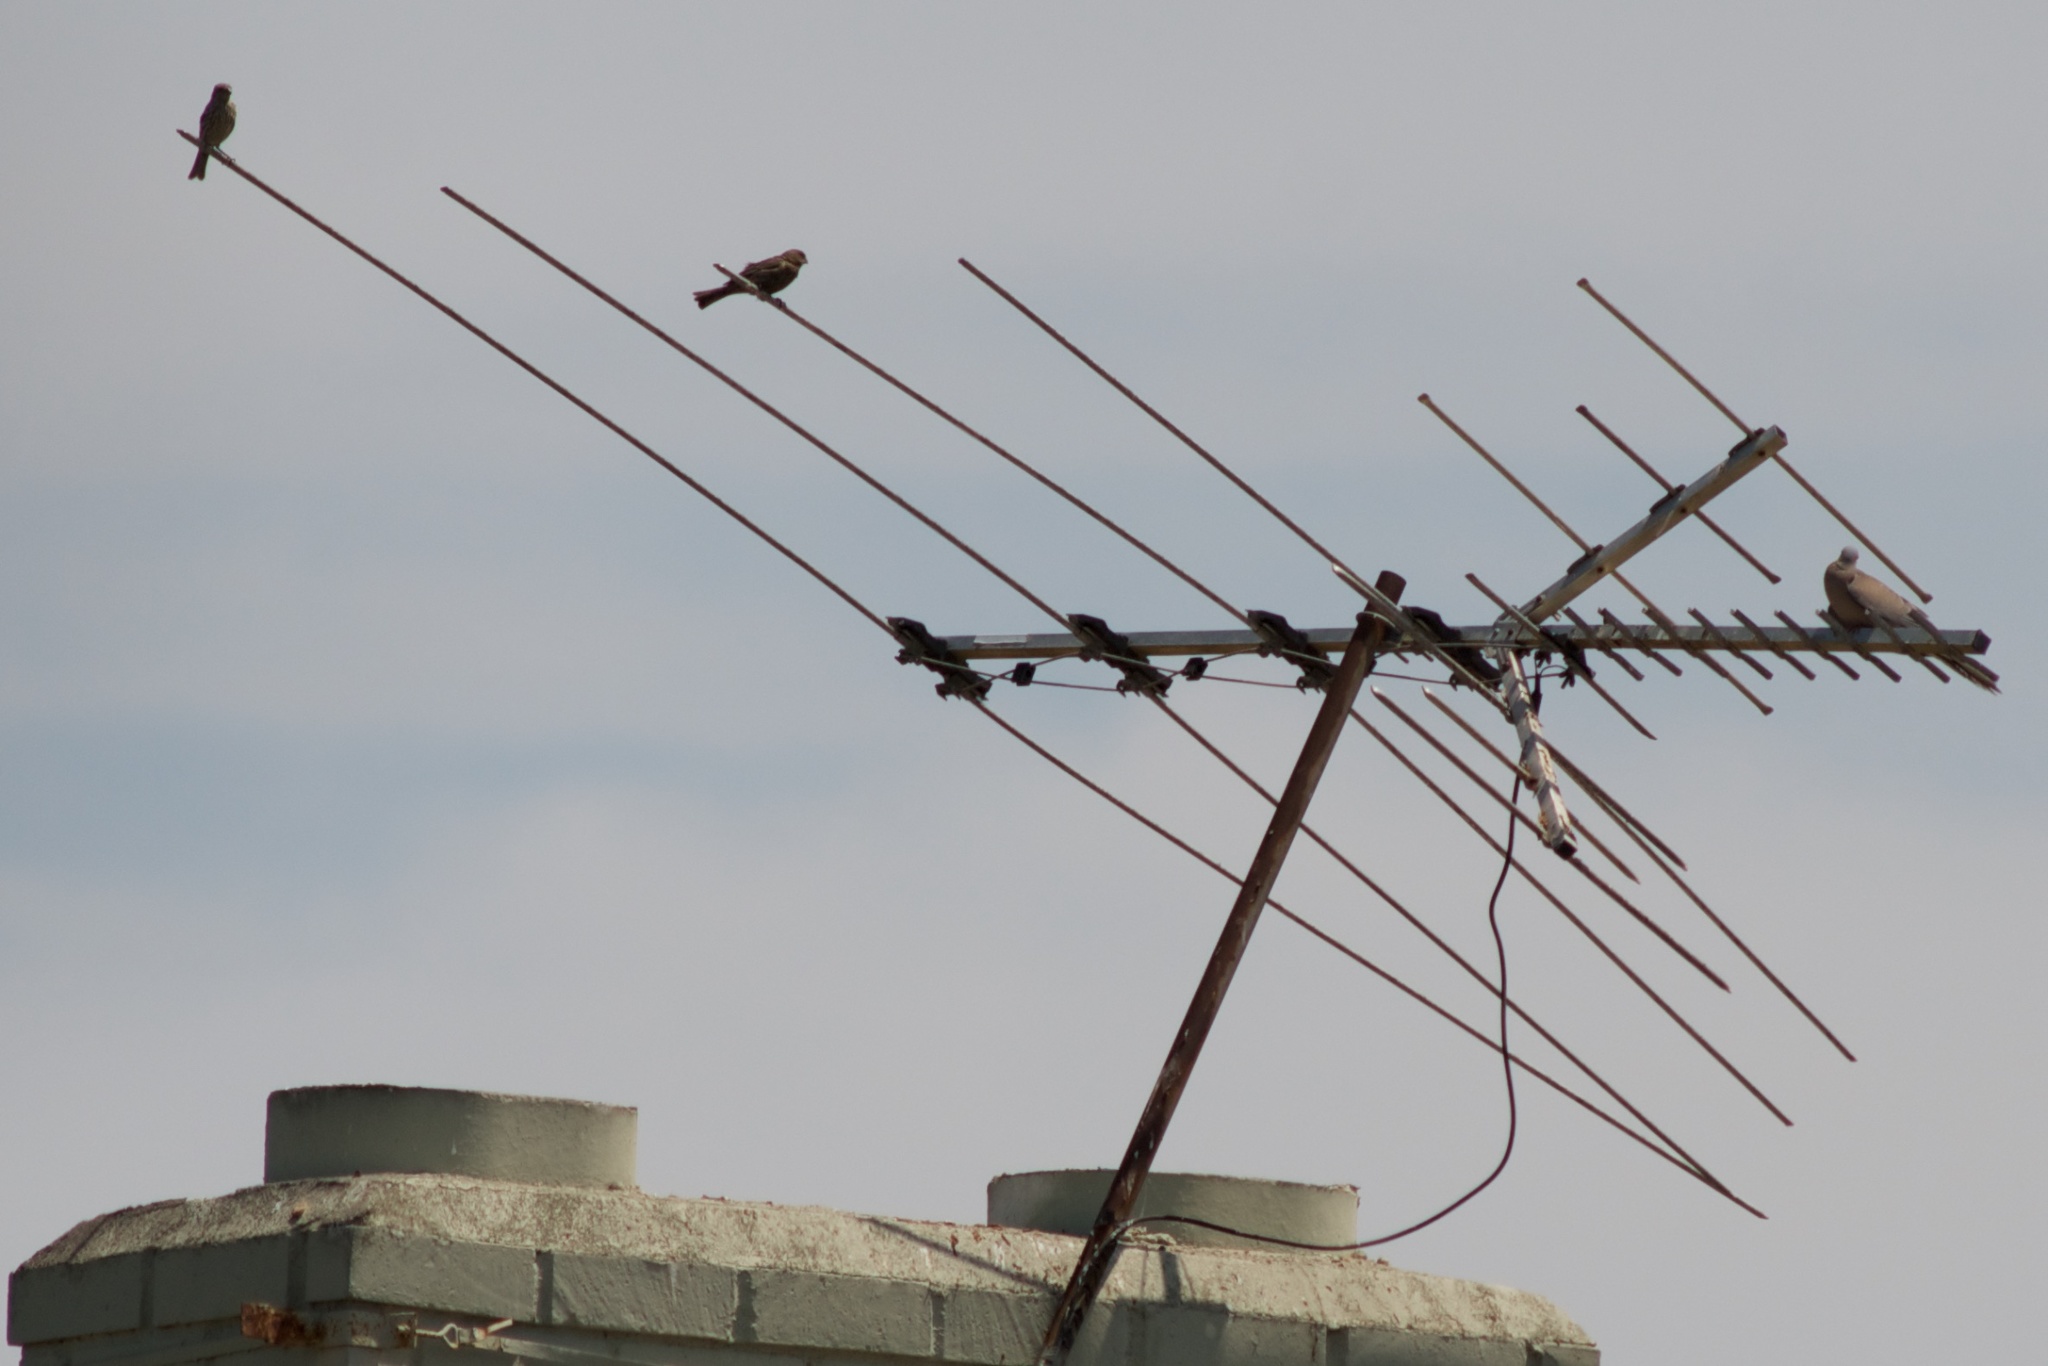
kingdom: Animalia
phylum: Chordata
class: Aves
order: Columbiformes
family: Columbidae
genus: Zenaida
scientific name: Zenaida macroura
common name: Mourning dove
